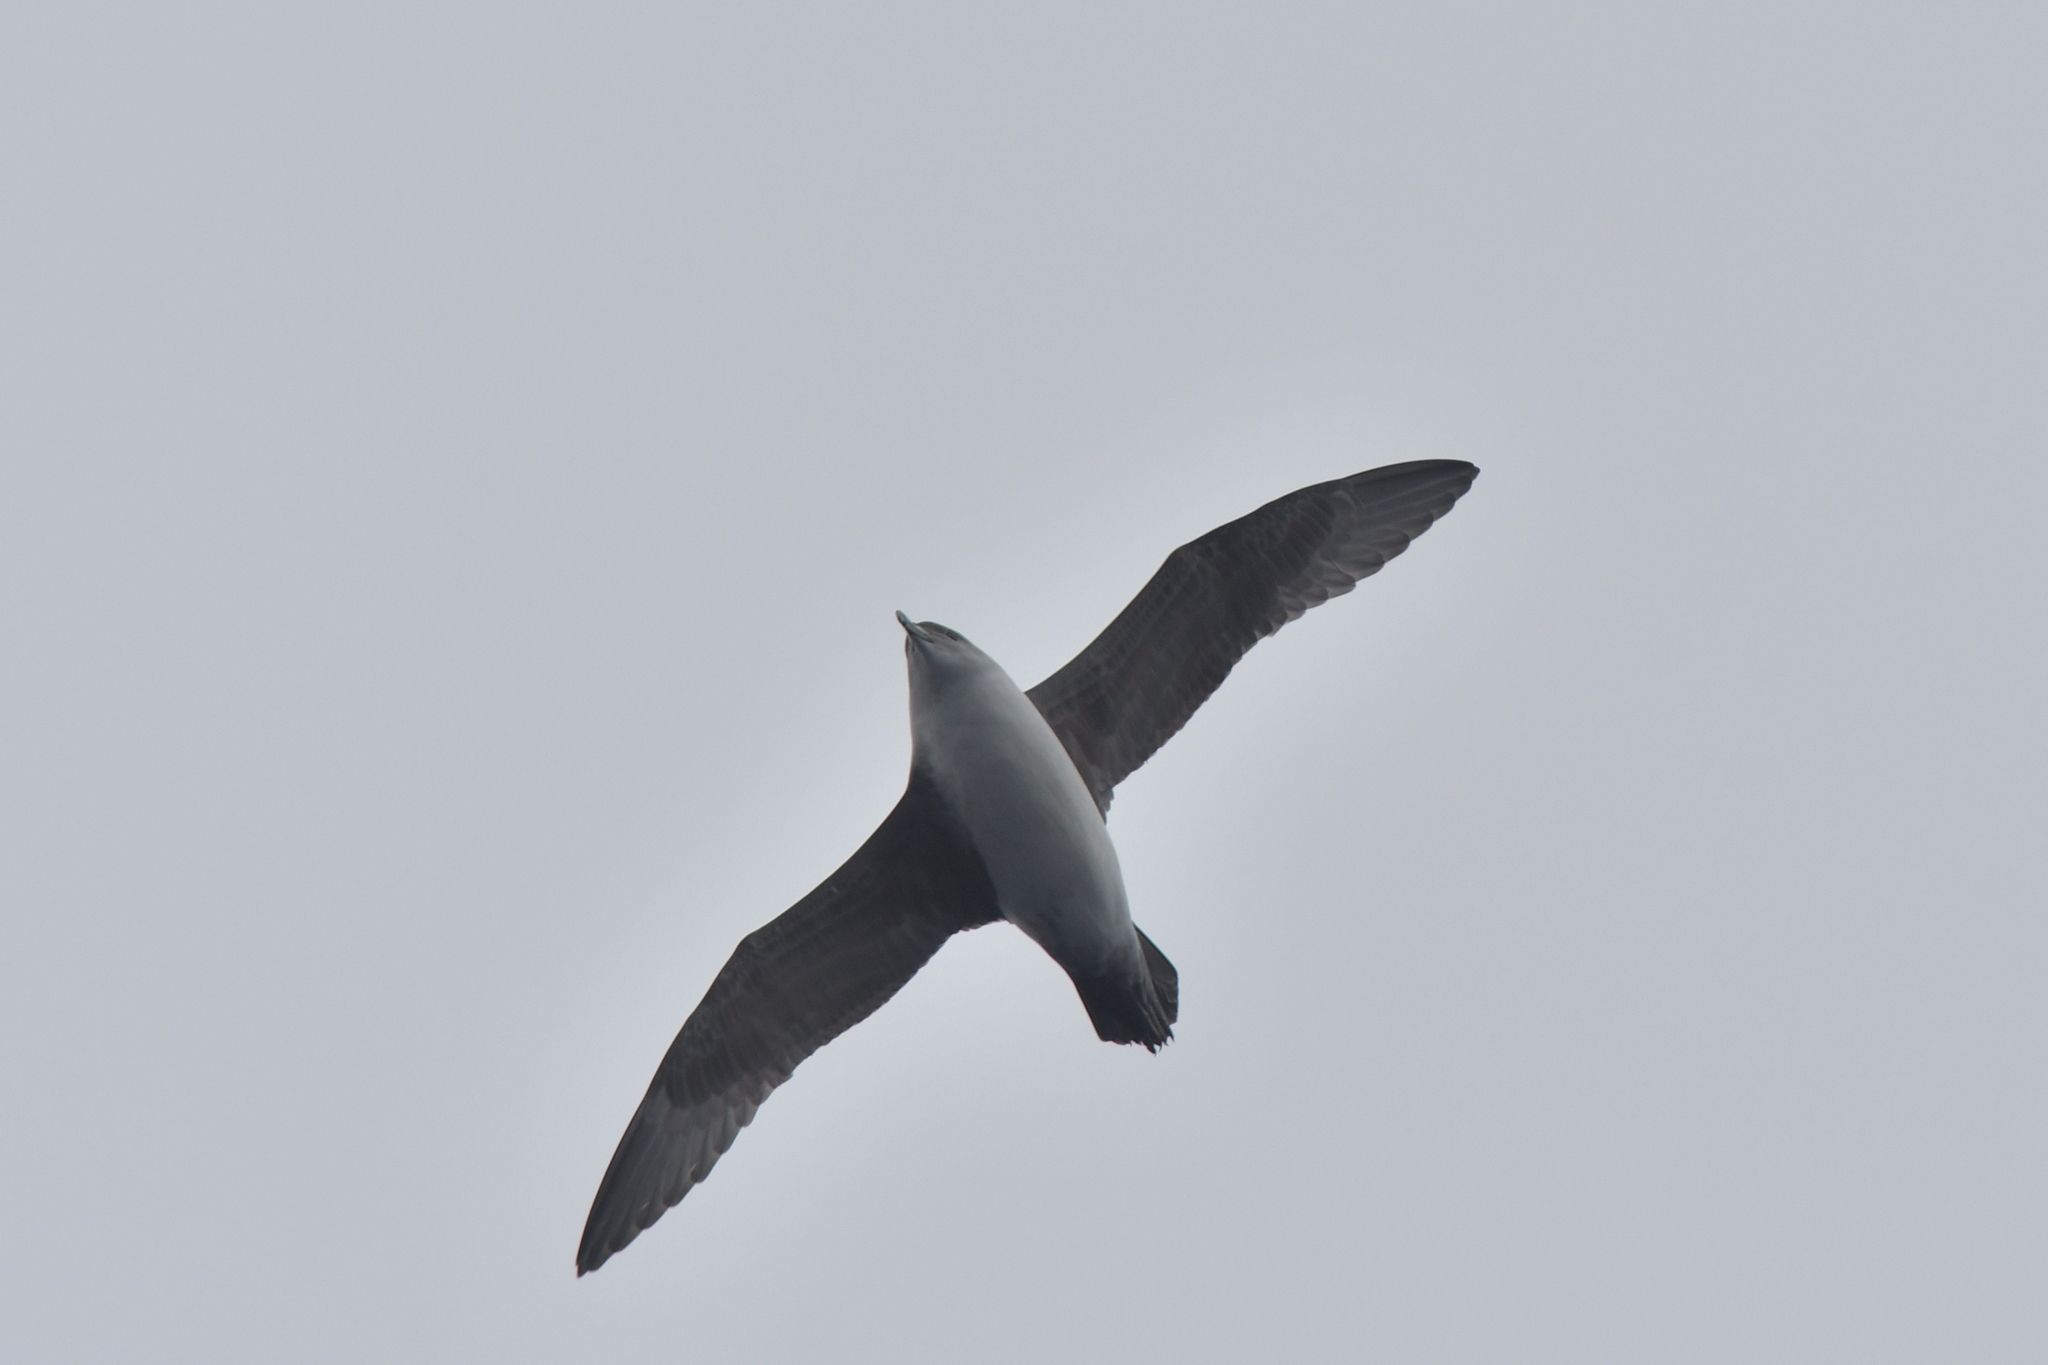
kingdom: Animalia
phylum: Chordata
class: Aves
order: Procellariiformes
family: Procellariidae
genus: Procellaria
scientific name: Procellaria cinerea
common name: Grey petrel
